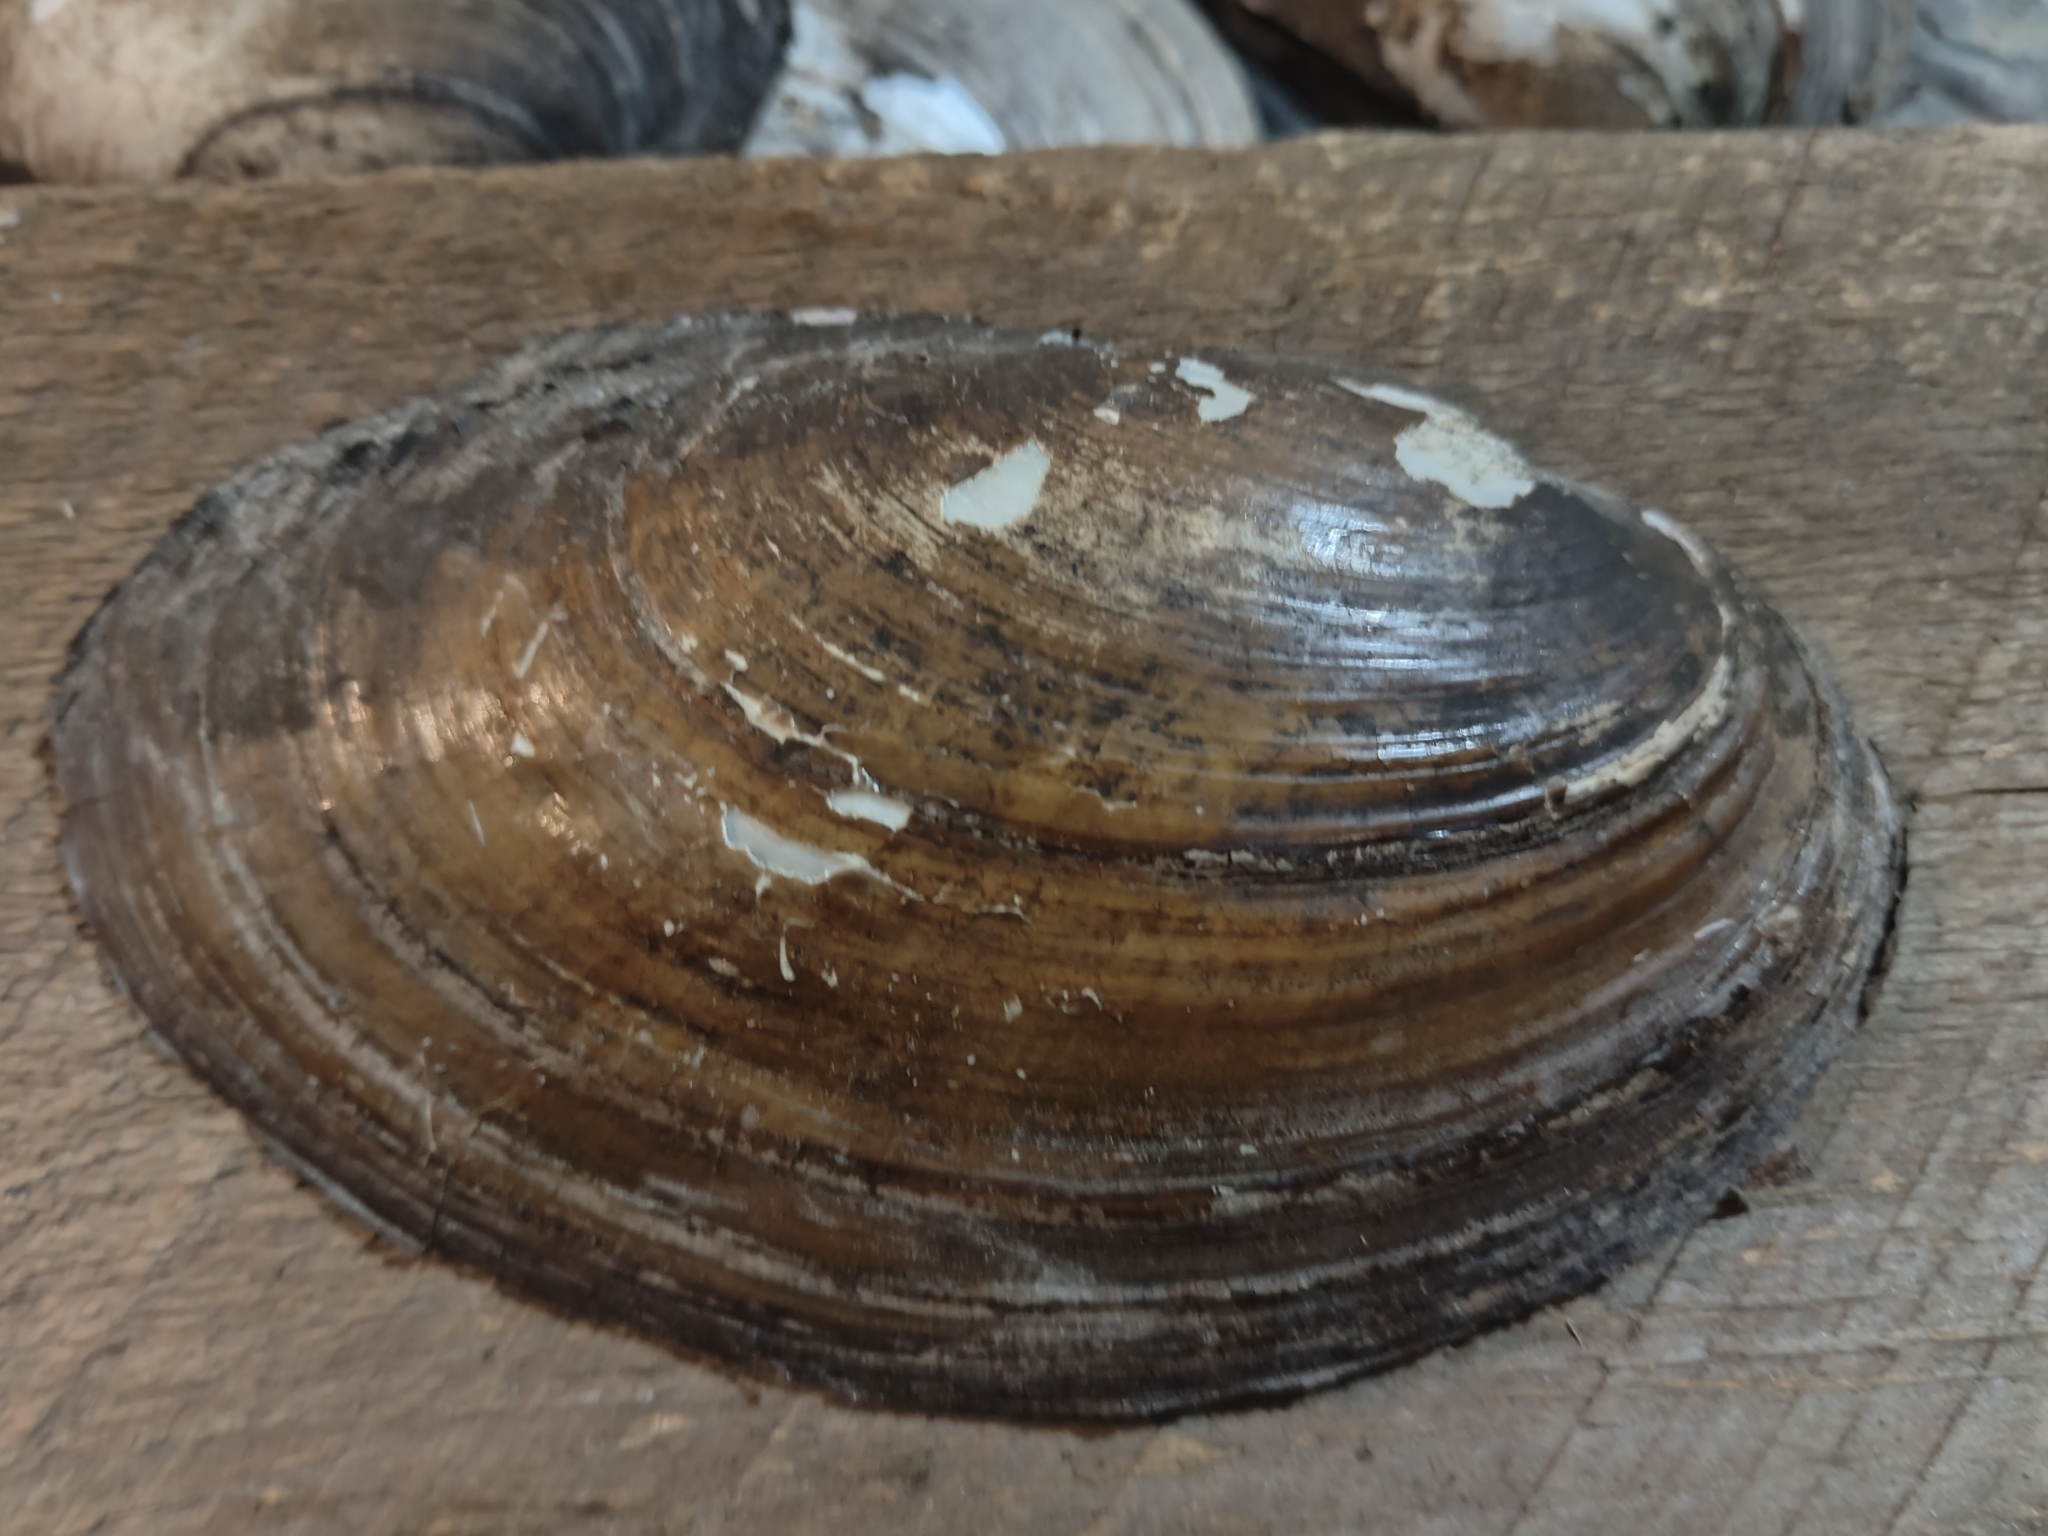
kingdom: Animalia
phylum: Mollusca
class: Bivalvia
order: Unionida
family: Unionidae
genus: Potamilus
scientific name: Potamilus fragilis
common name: Fragile papershell
